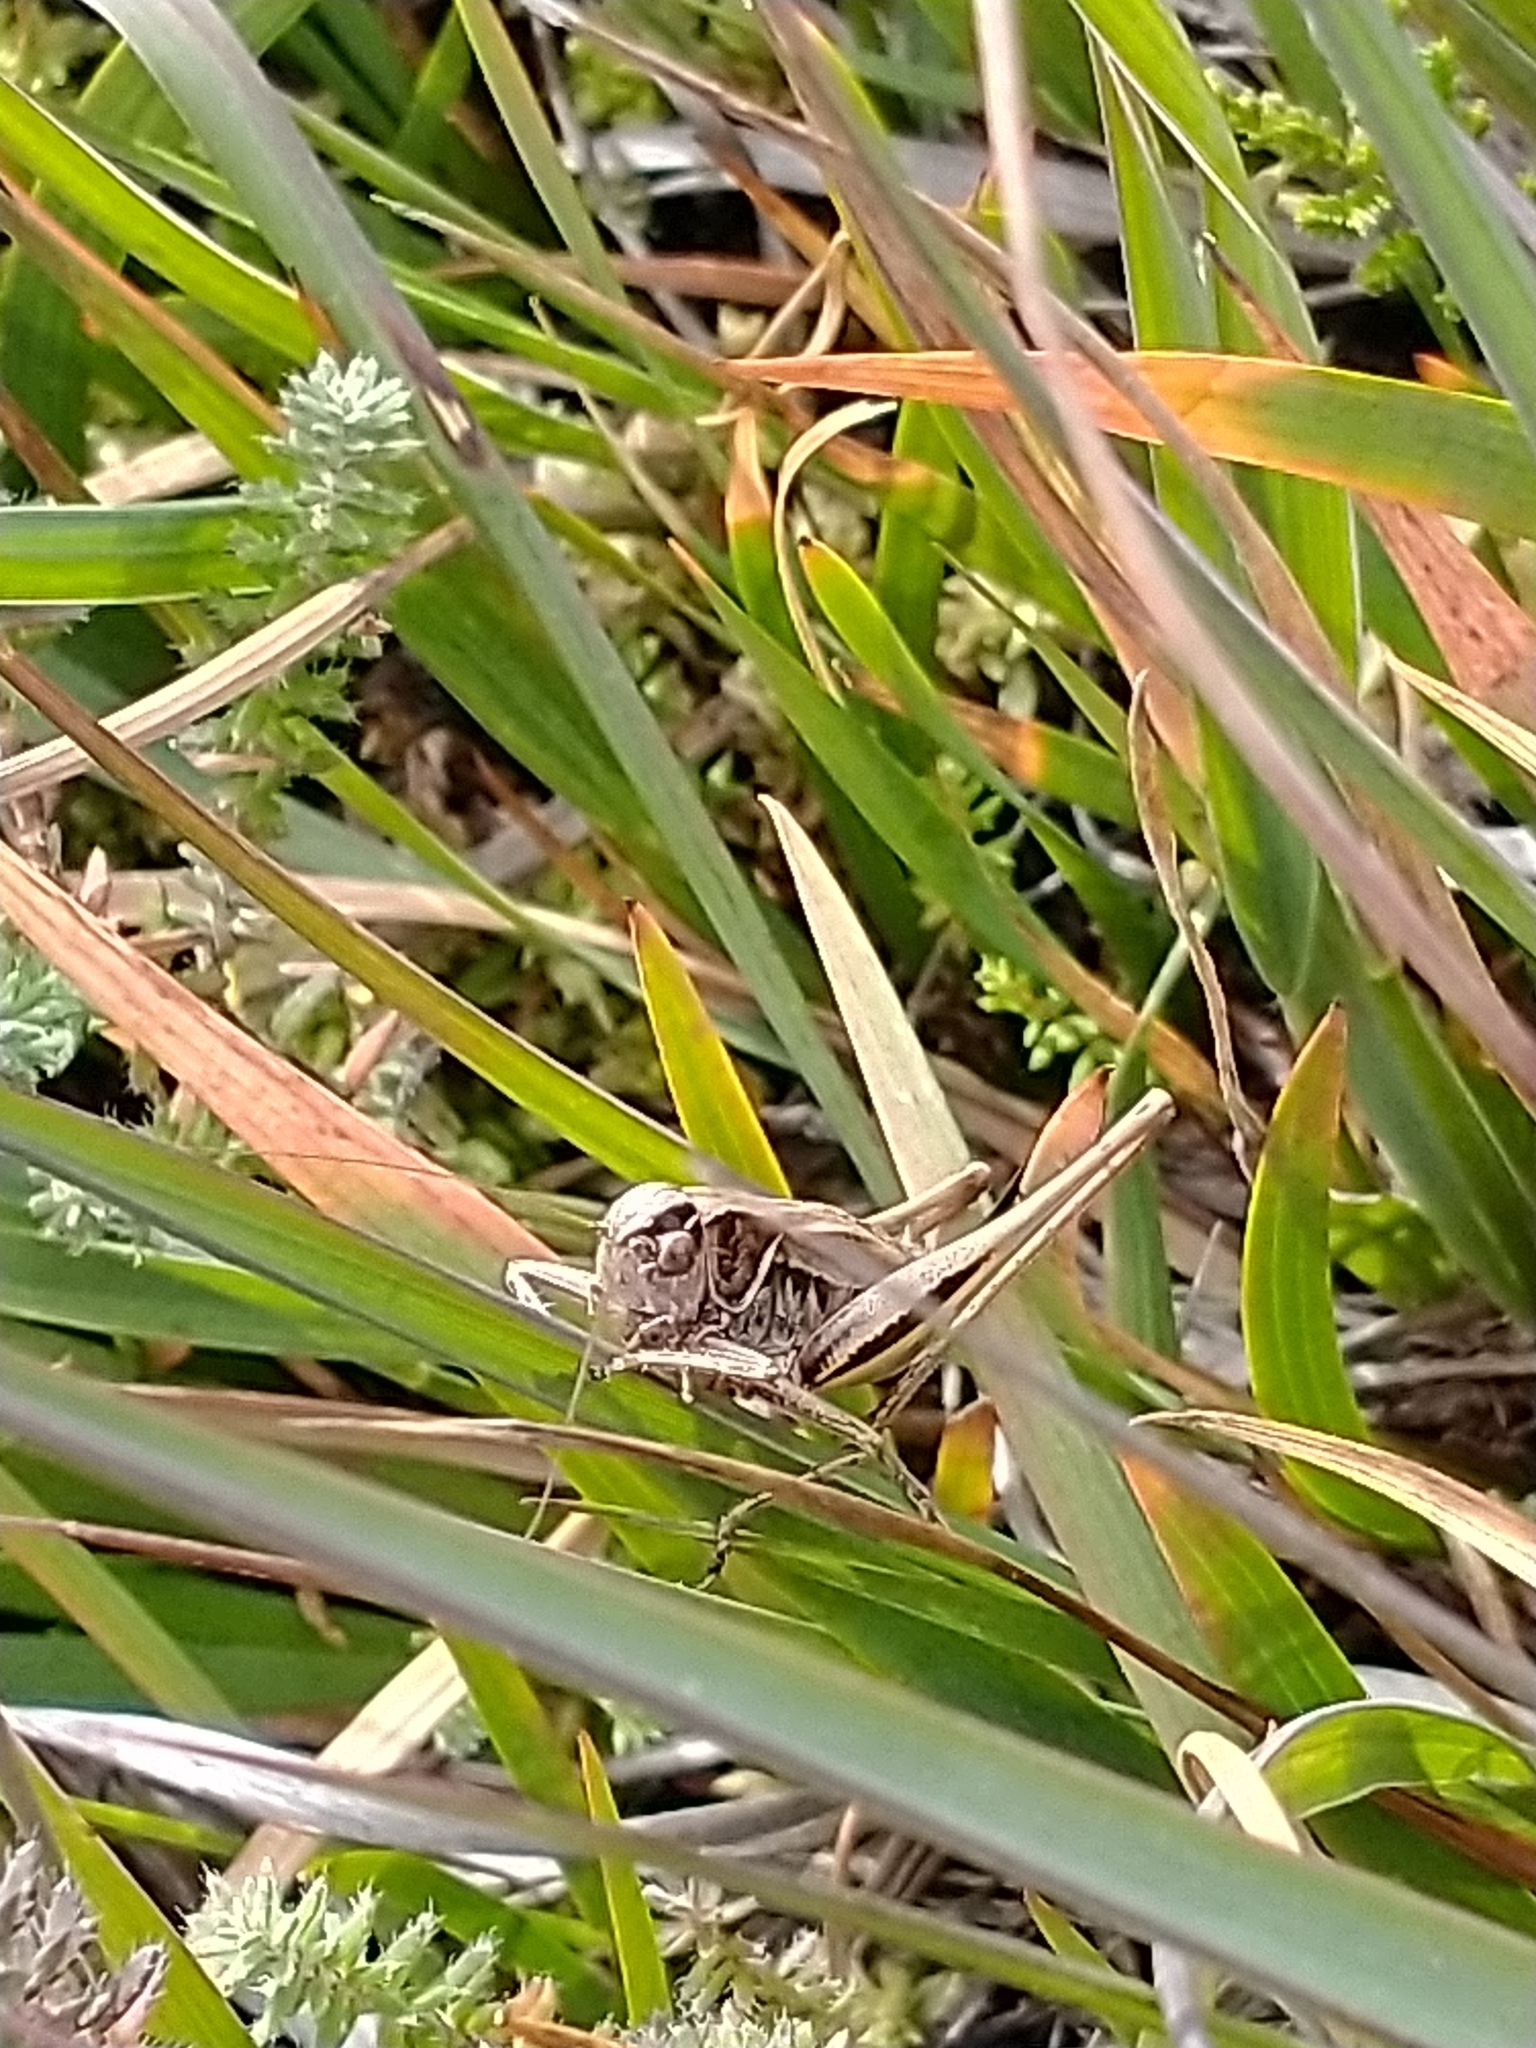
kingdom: Animalia
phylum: Arthropoda
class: Insecta
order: Orthoptera
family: Tettigoniidae
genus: Metrioptera
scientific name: Metrioptera brachyptera
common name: Bog bush-cricket
